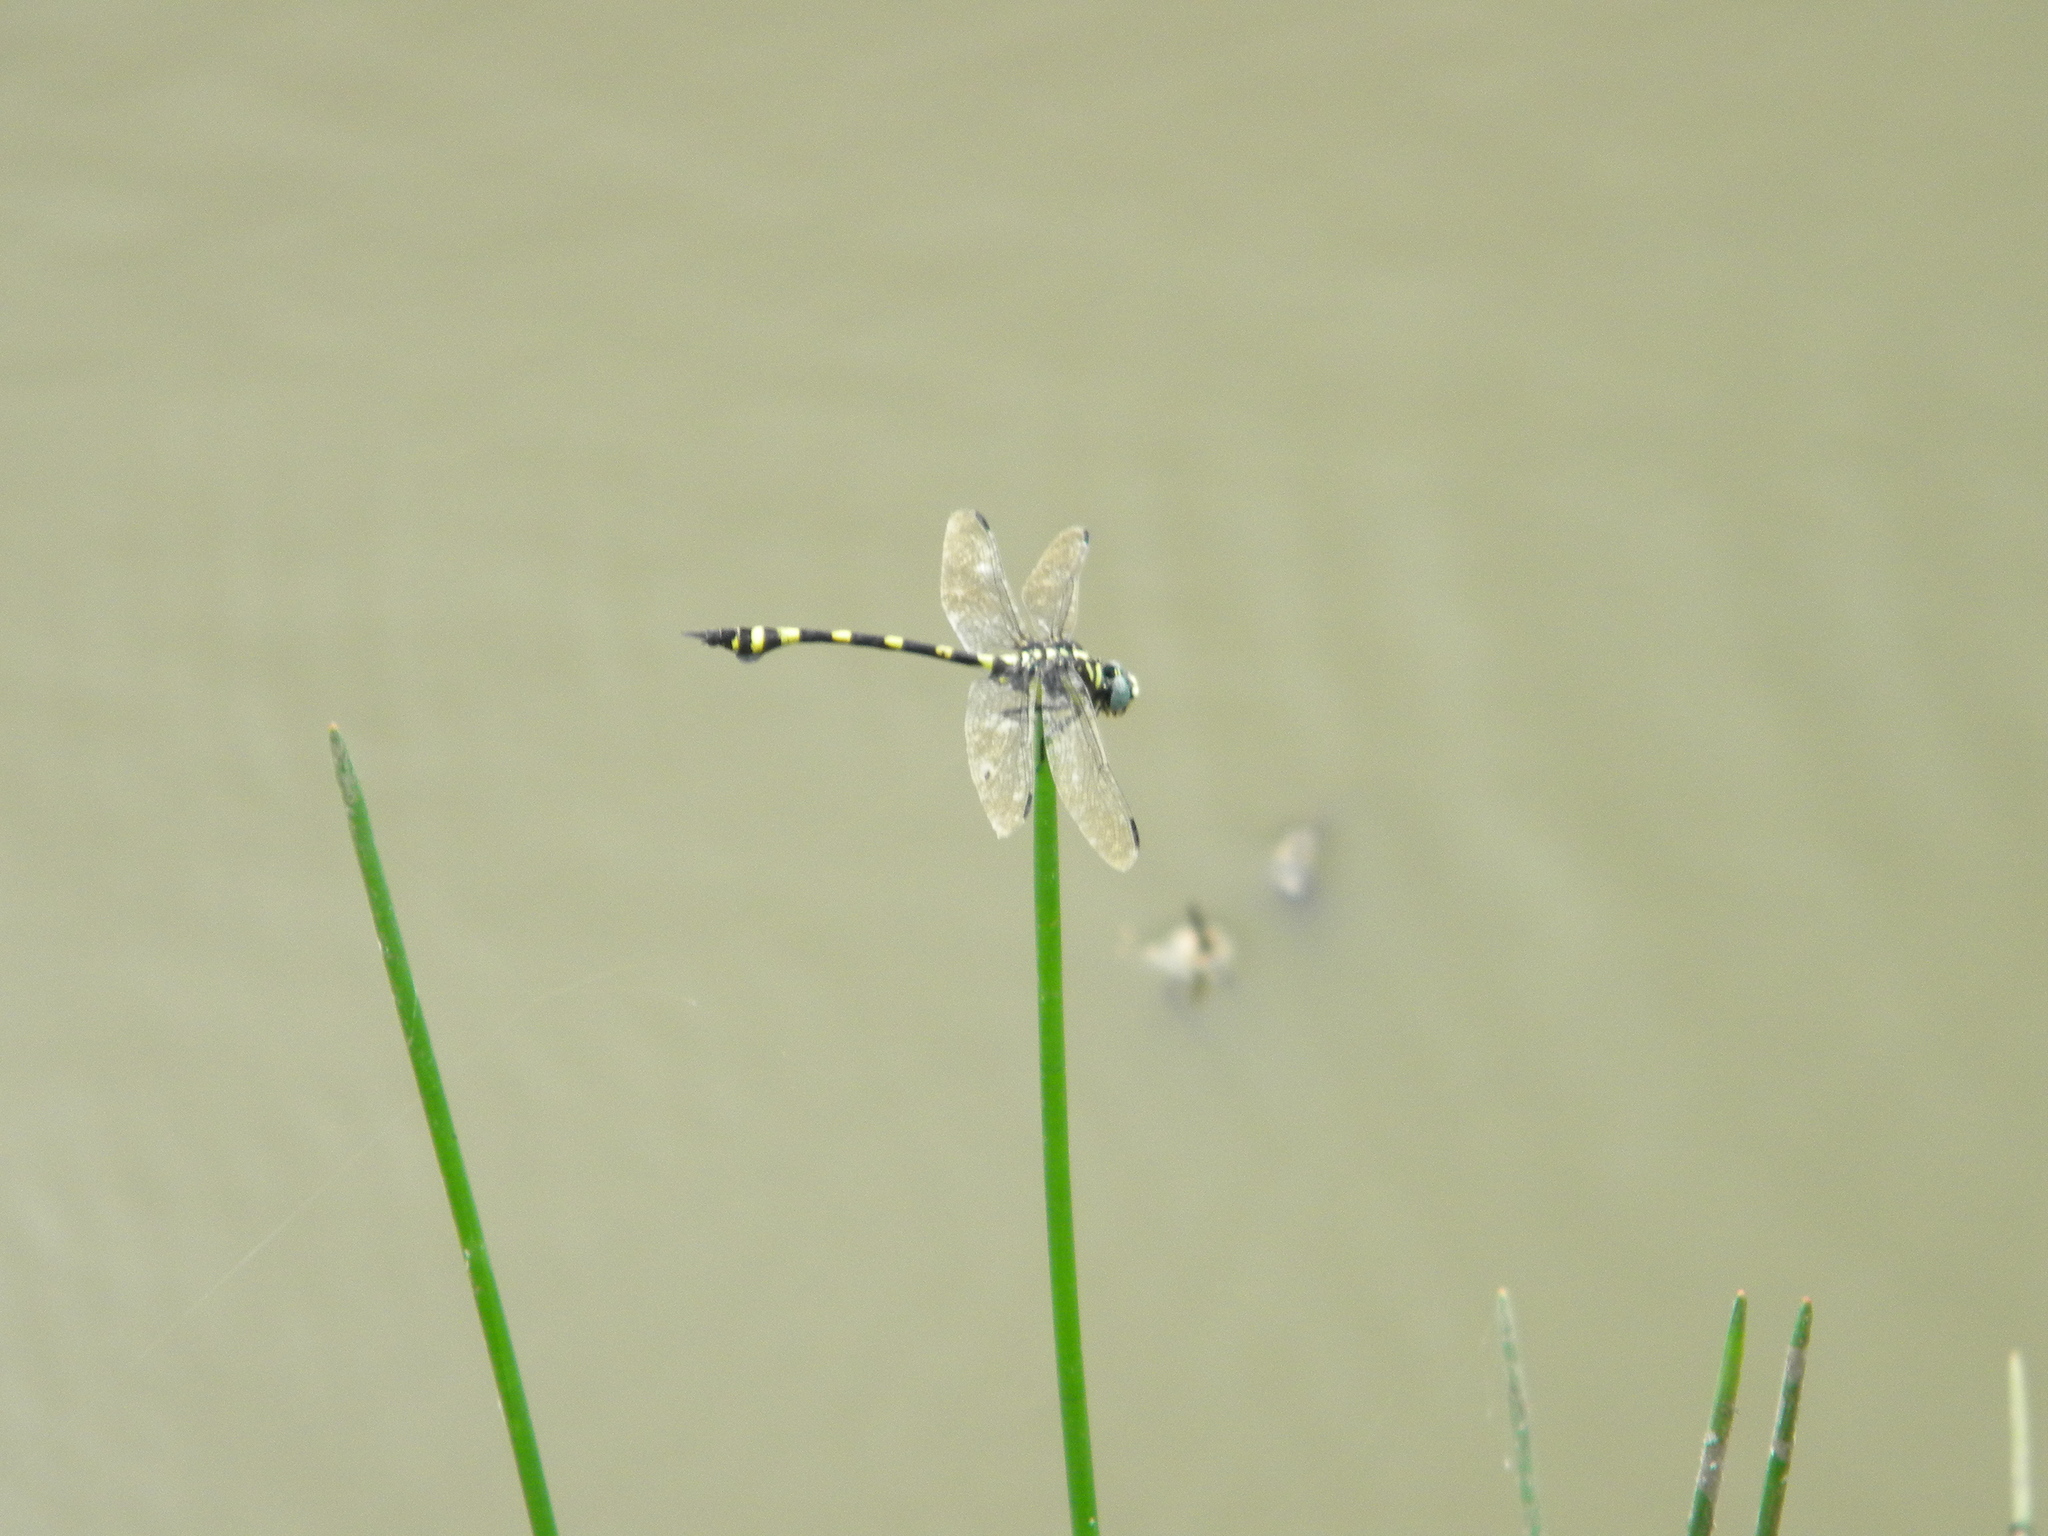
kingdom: Animalia
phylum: Arthropoda
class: Insecta
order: Odonata
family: Gomphidae
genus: Ictinogomphus
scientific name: Ictinogomphus rapax
